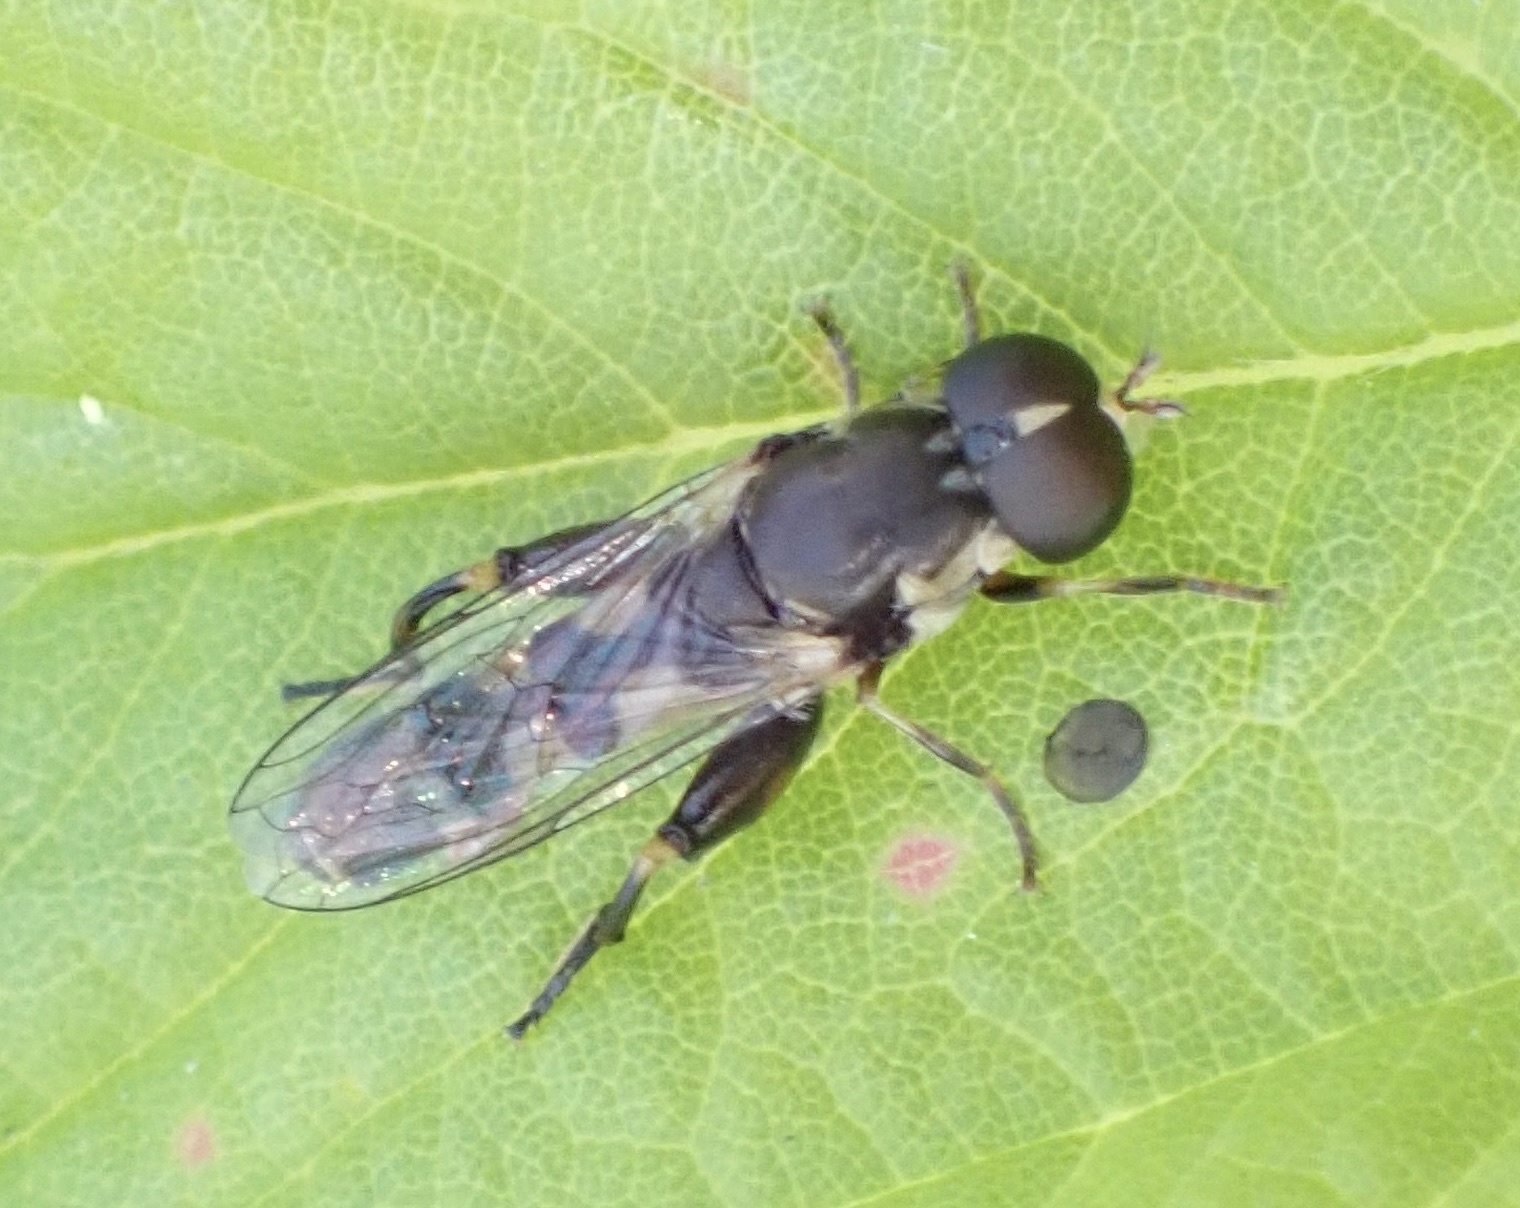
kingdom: Animalia
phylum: Arthropoda
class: Insecta
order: Diptera
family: Syrphidae
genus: Syritta
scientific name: Syritta pipiens
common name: Hover fly
